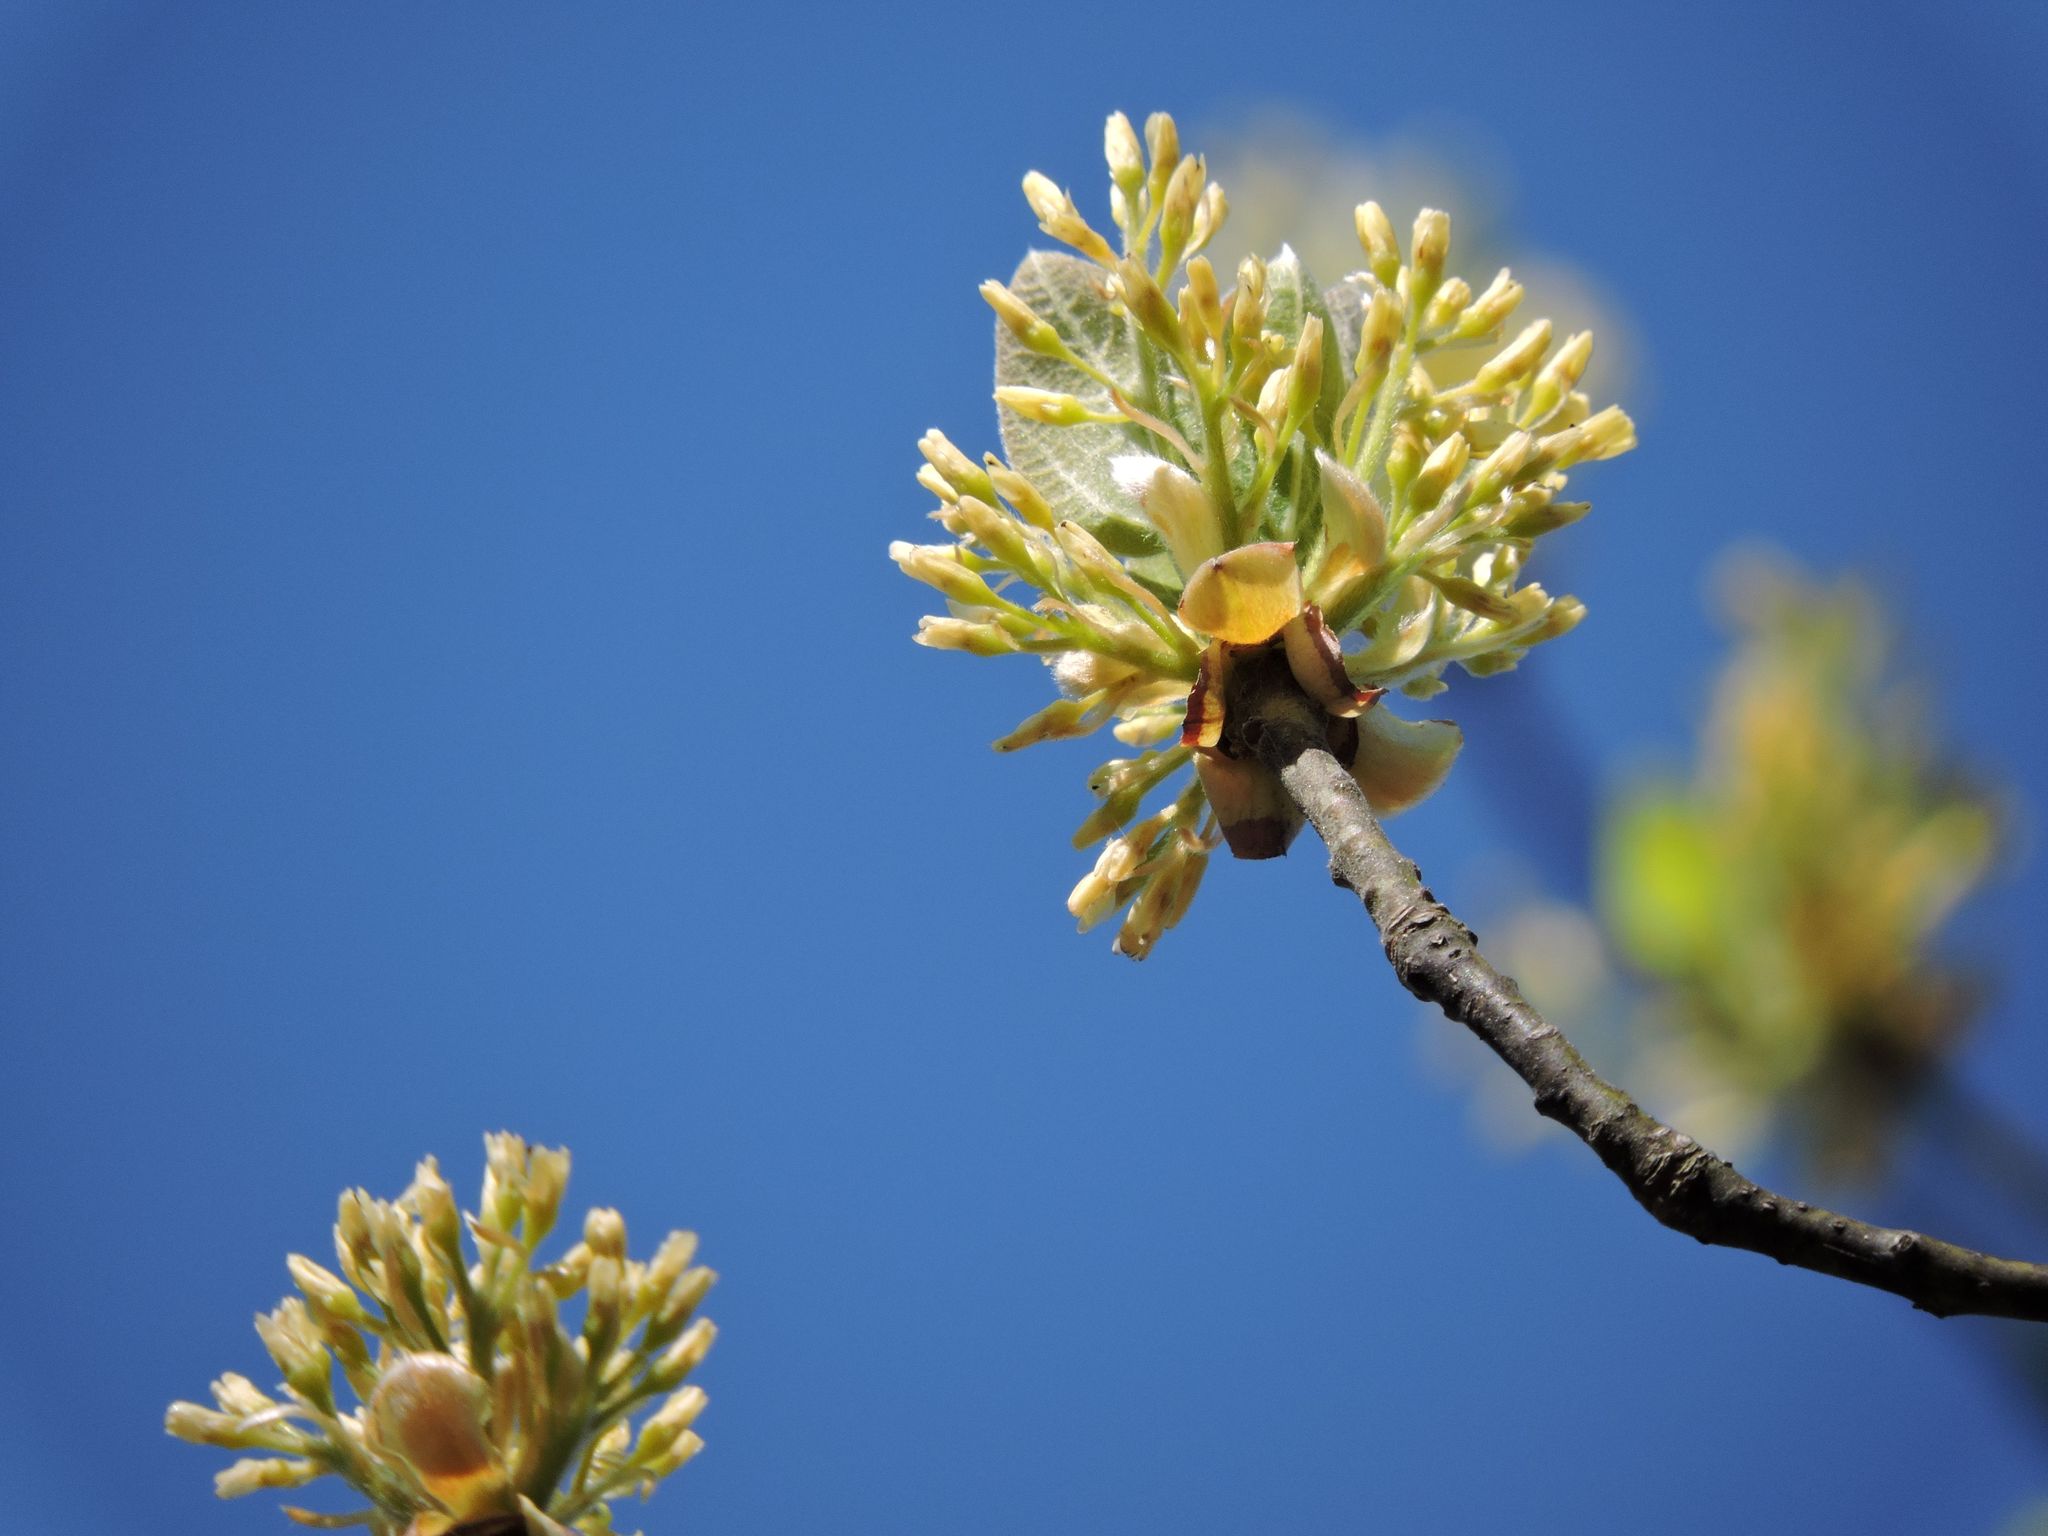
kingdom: Plantae
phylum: Tracheophyta
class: Magnoliopsida
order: Laurales
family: Lauraceae
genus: Sassafras
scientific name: Sassafras albidum
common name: Sassafras
